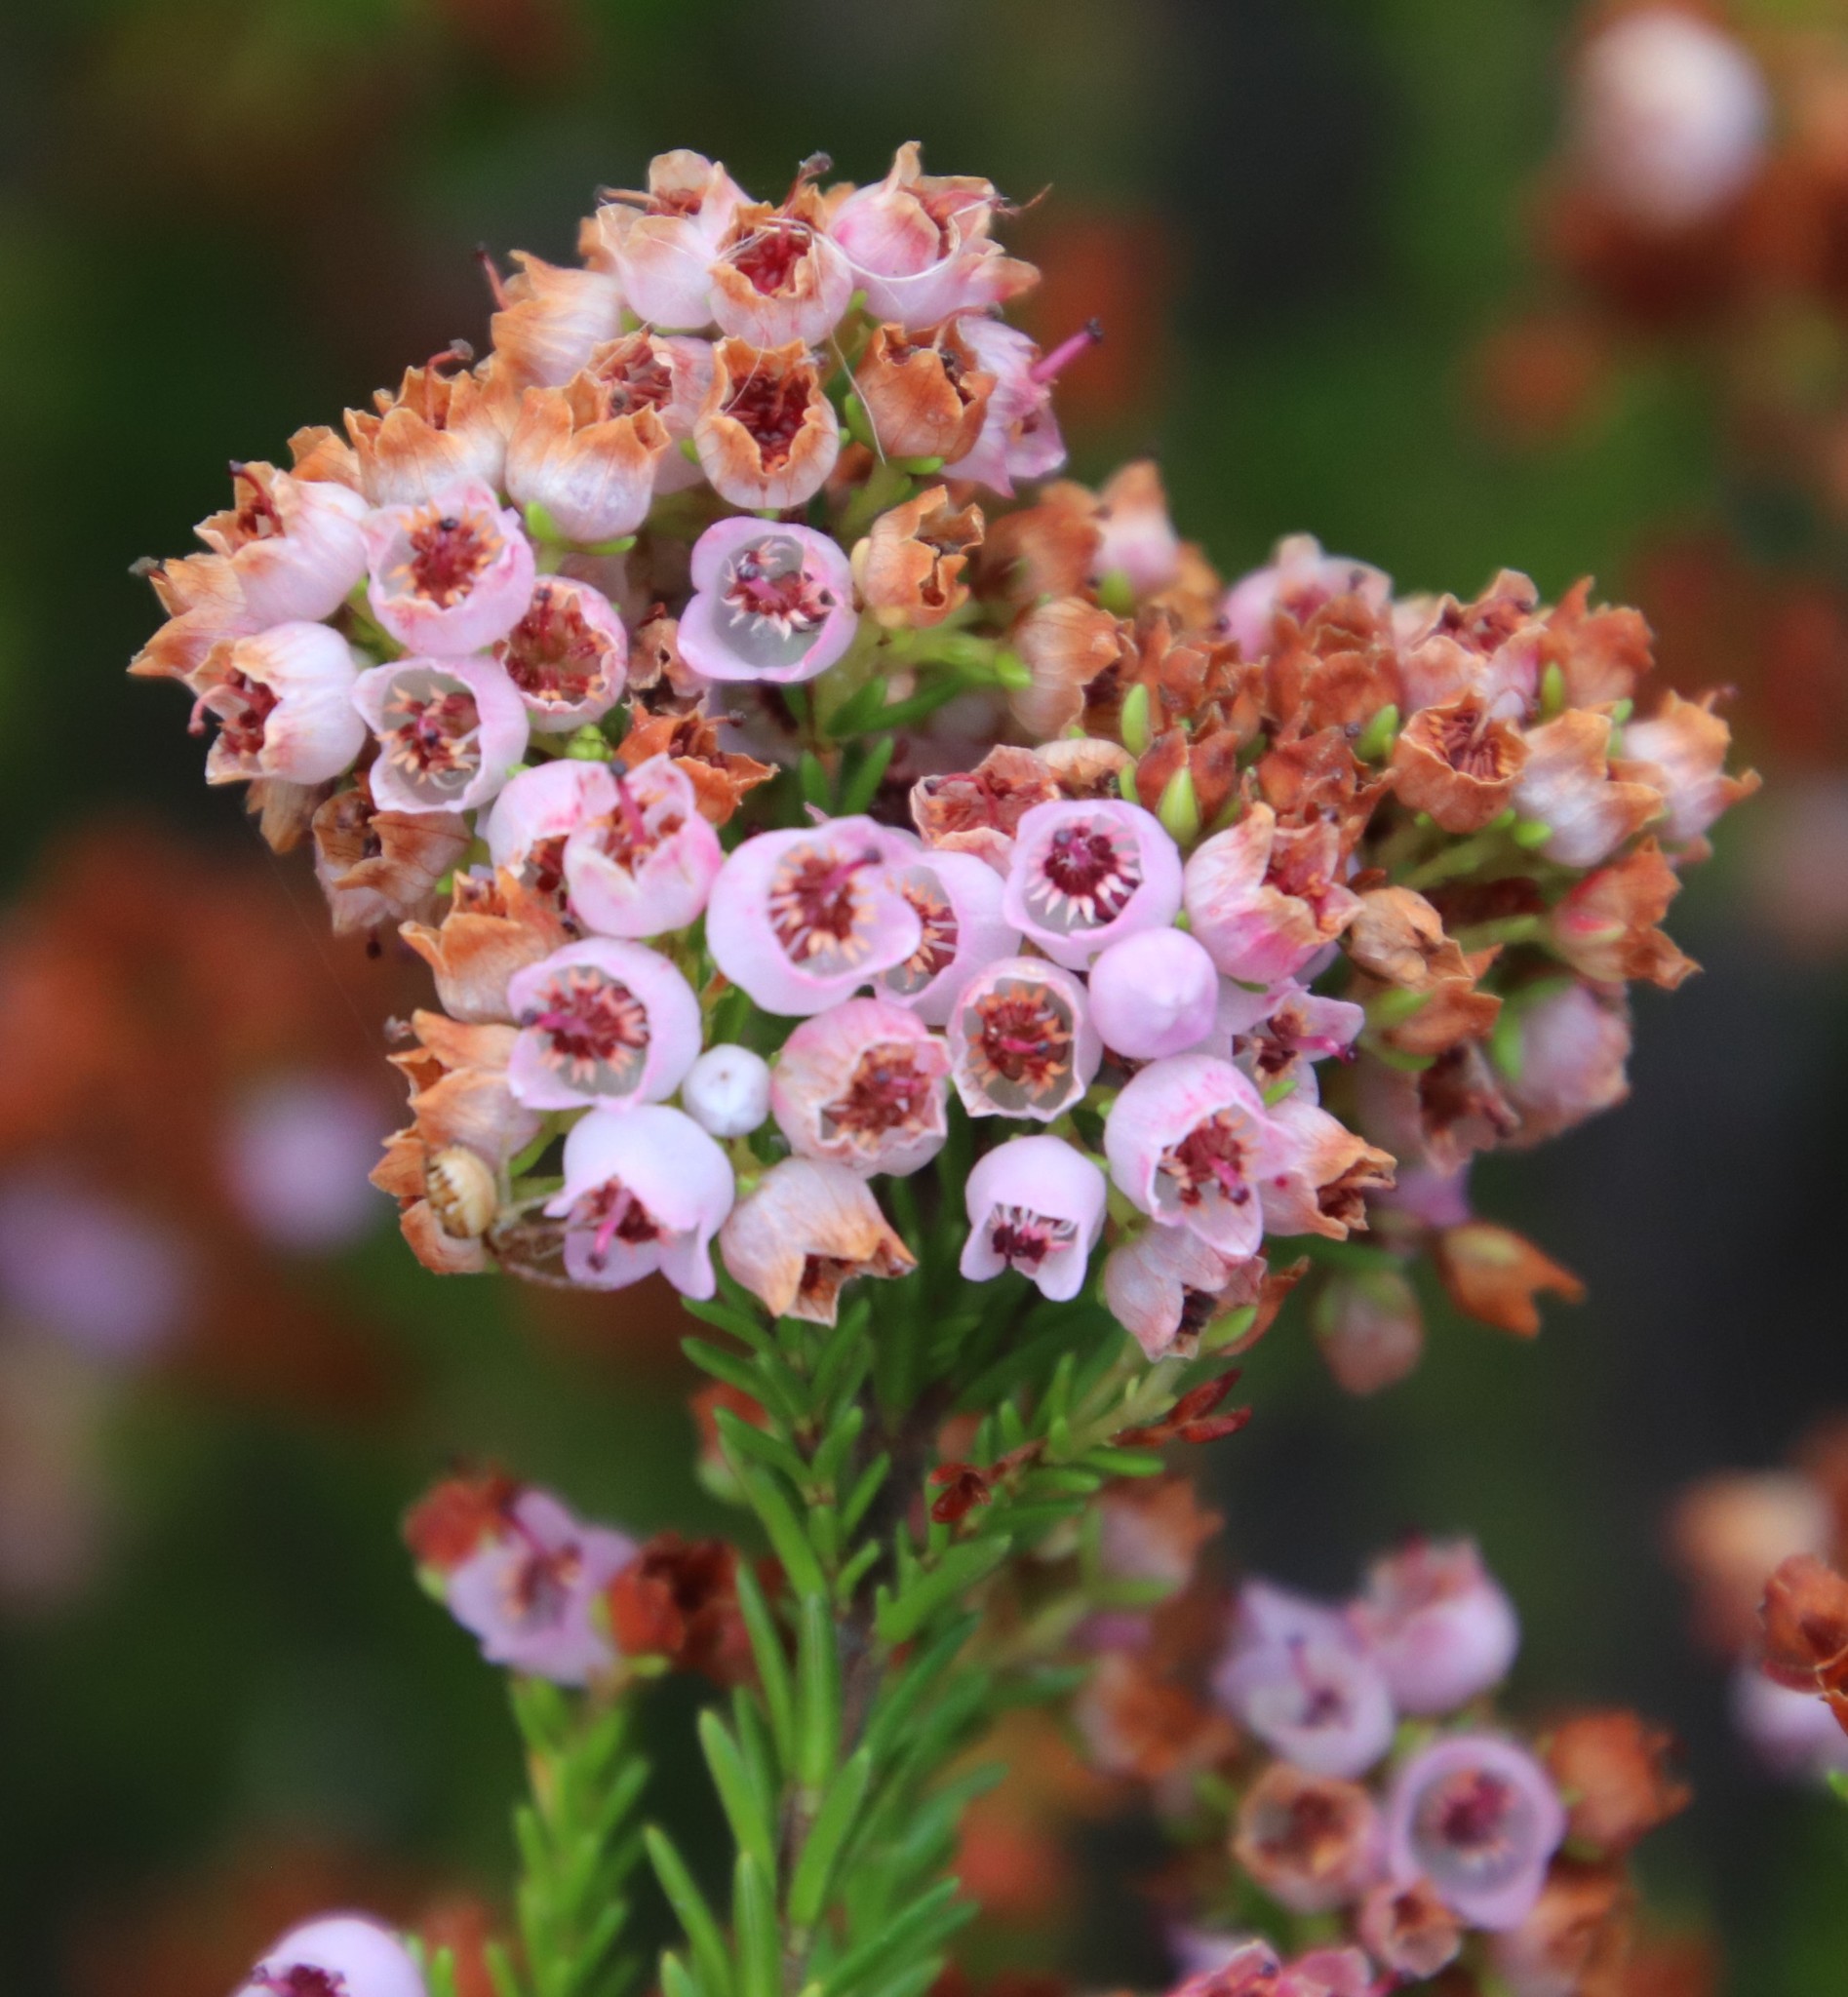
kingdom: Plantae
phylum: Tracheophyta
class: Magnoliopsida
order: Ericales
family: Ericaceae
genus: Erica
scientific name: Erica curvirostris
